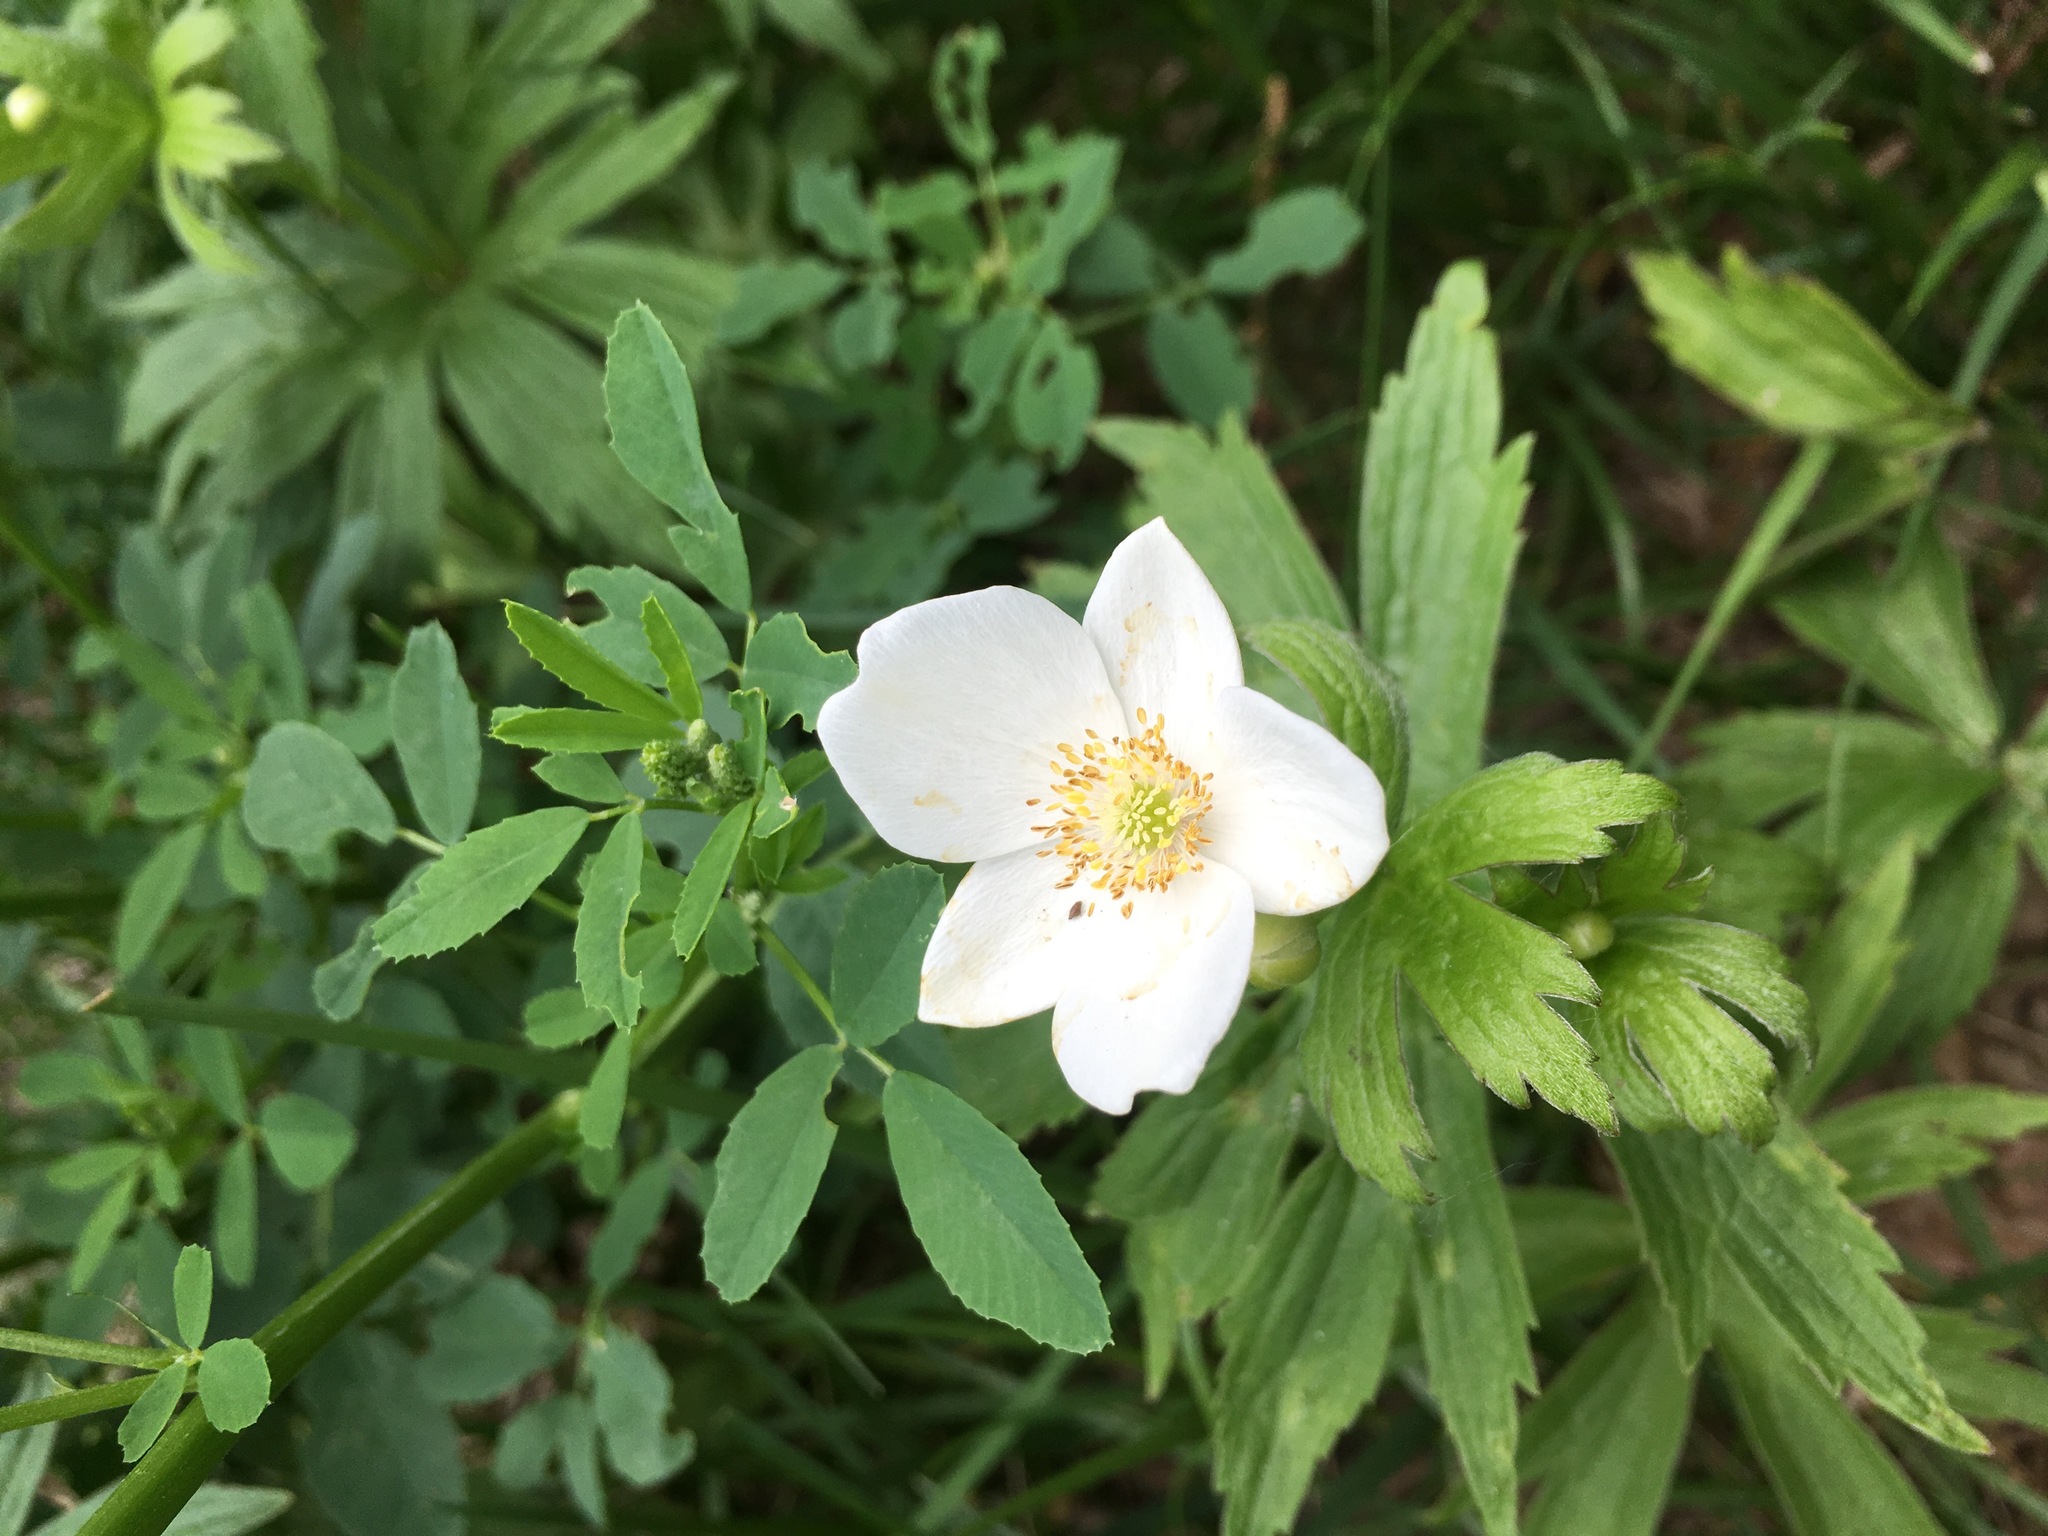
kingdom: Plantae
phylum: Tracheophyta
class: Magnoliopsida
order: Ranunculales
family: Ranunculaceae
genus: Anemonastrum
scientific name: Anemonastrum canadense
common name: Canada anemone
